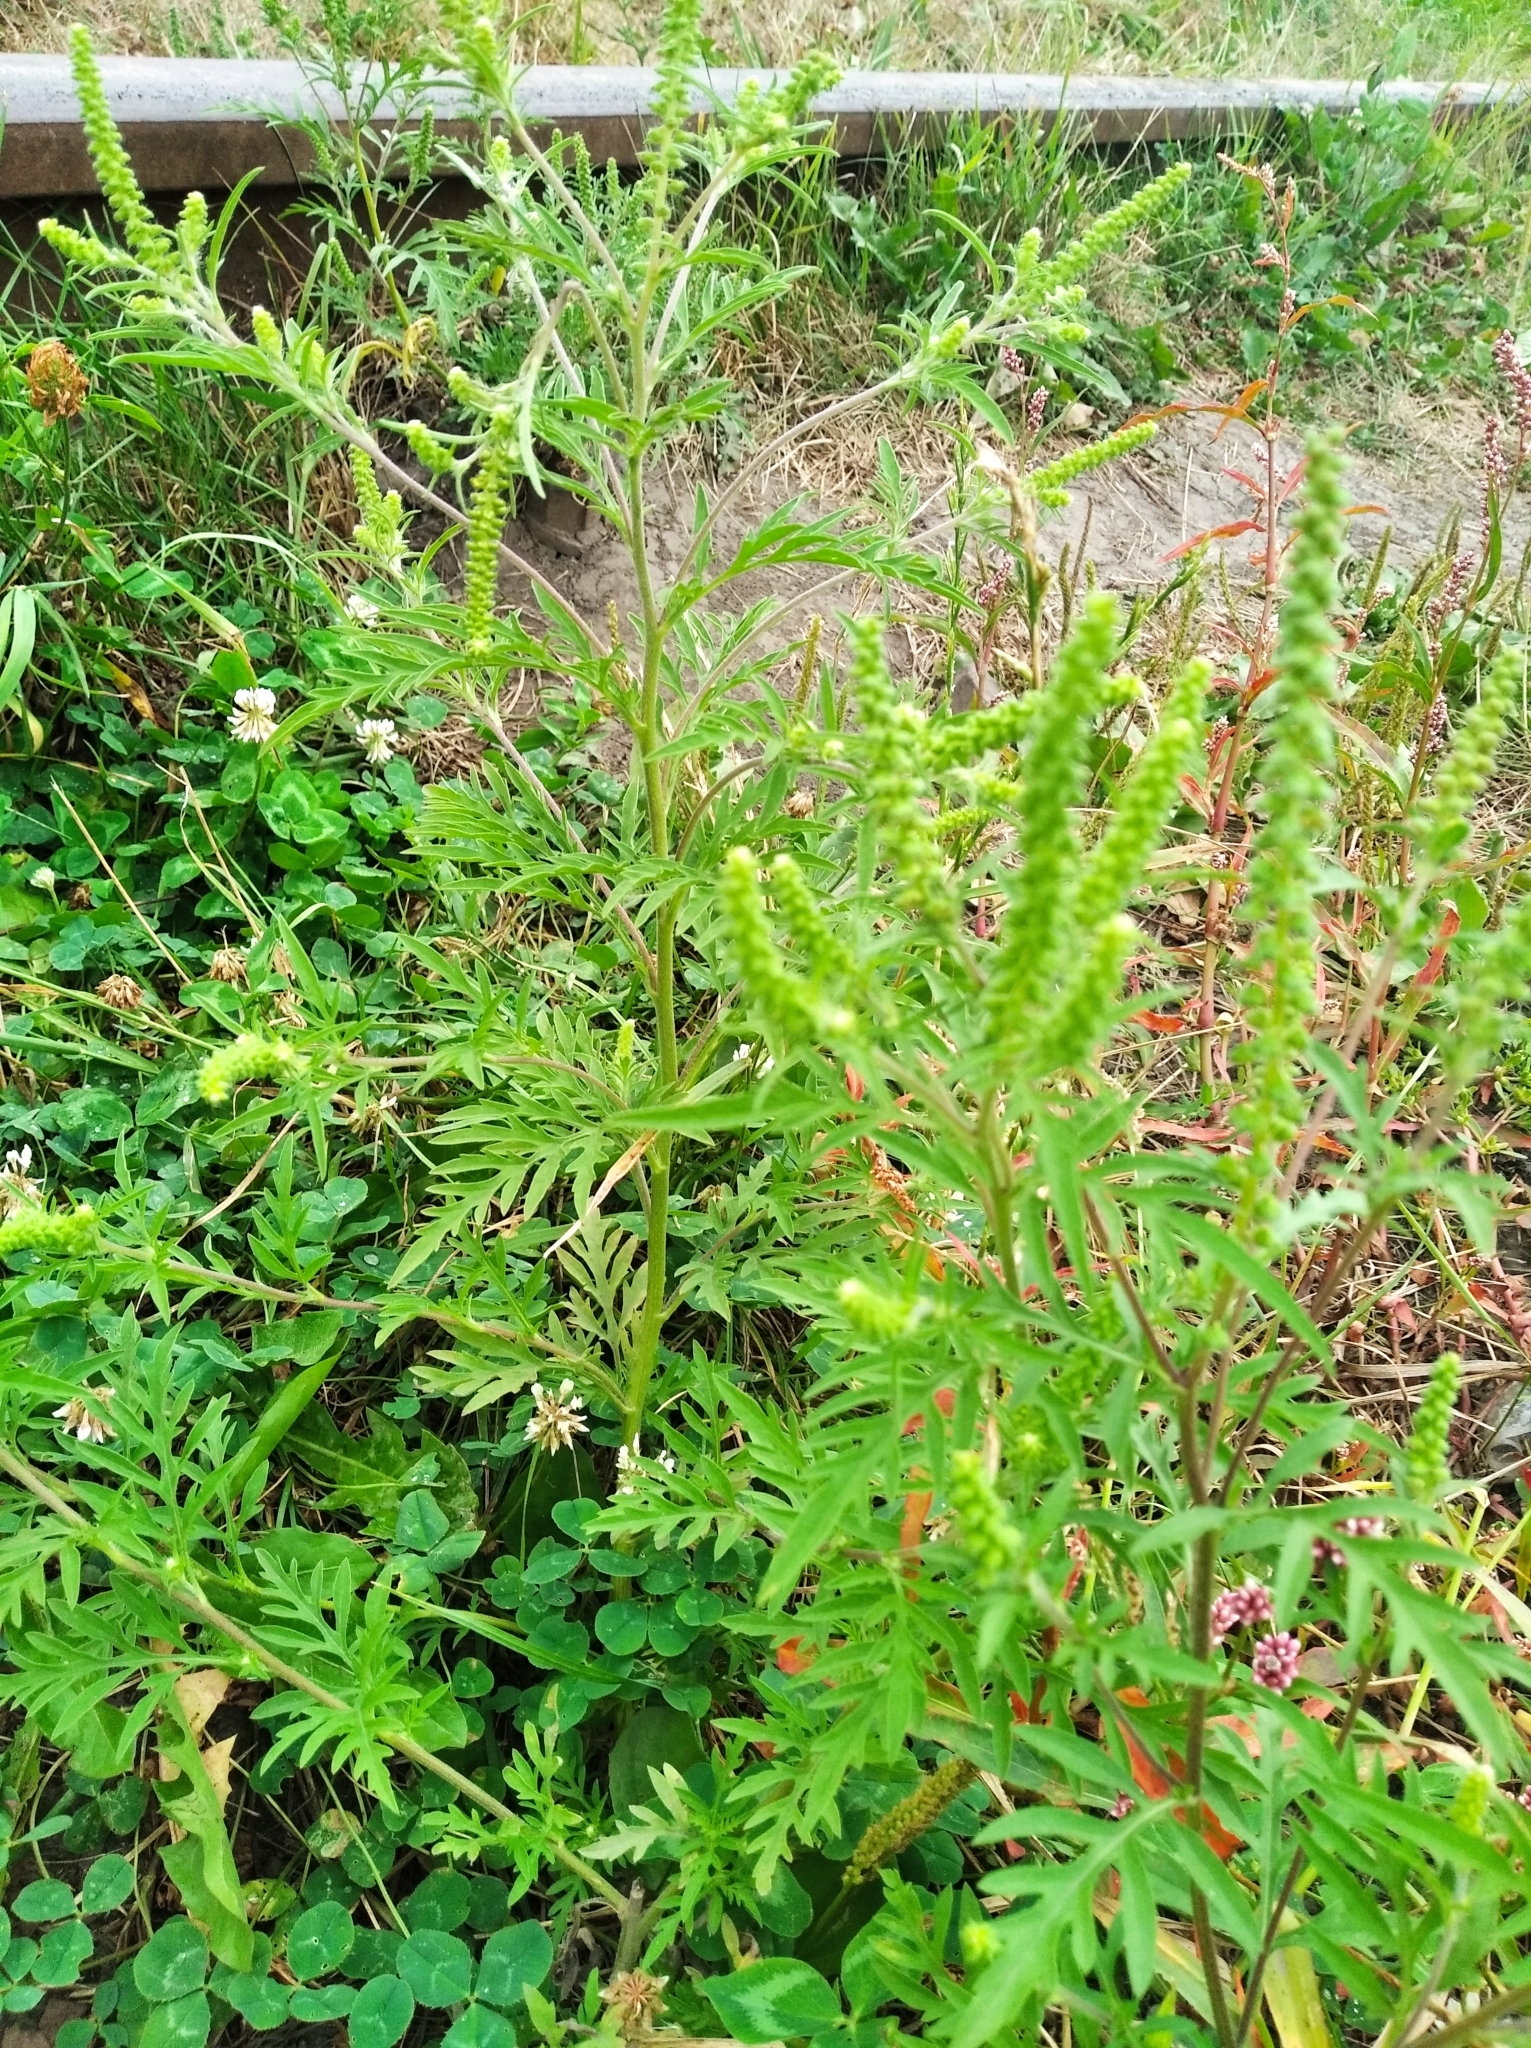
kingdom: Plantae
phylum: Tracheophyta
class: Magnoliopsida
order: Asterales
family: Asteraceae
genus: Ambrosia
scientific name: Ambrosia artemisiifolia
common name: Annual ragweed
